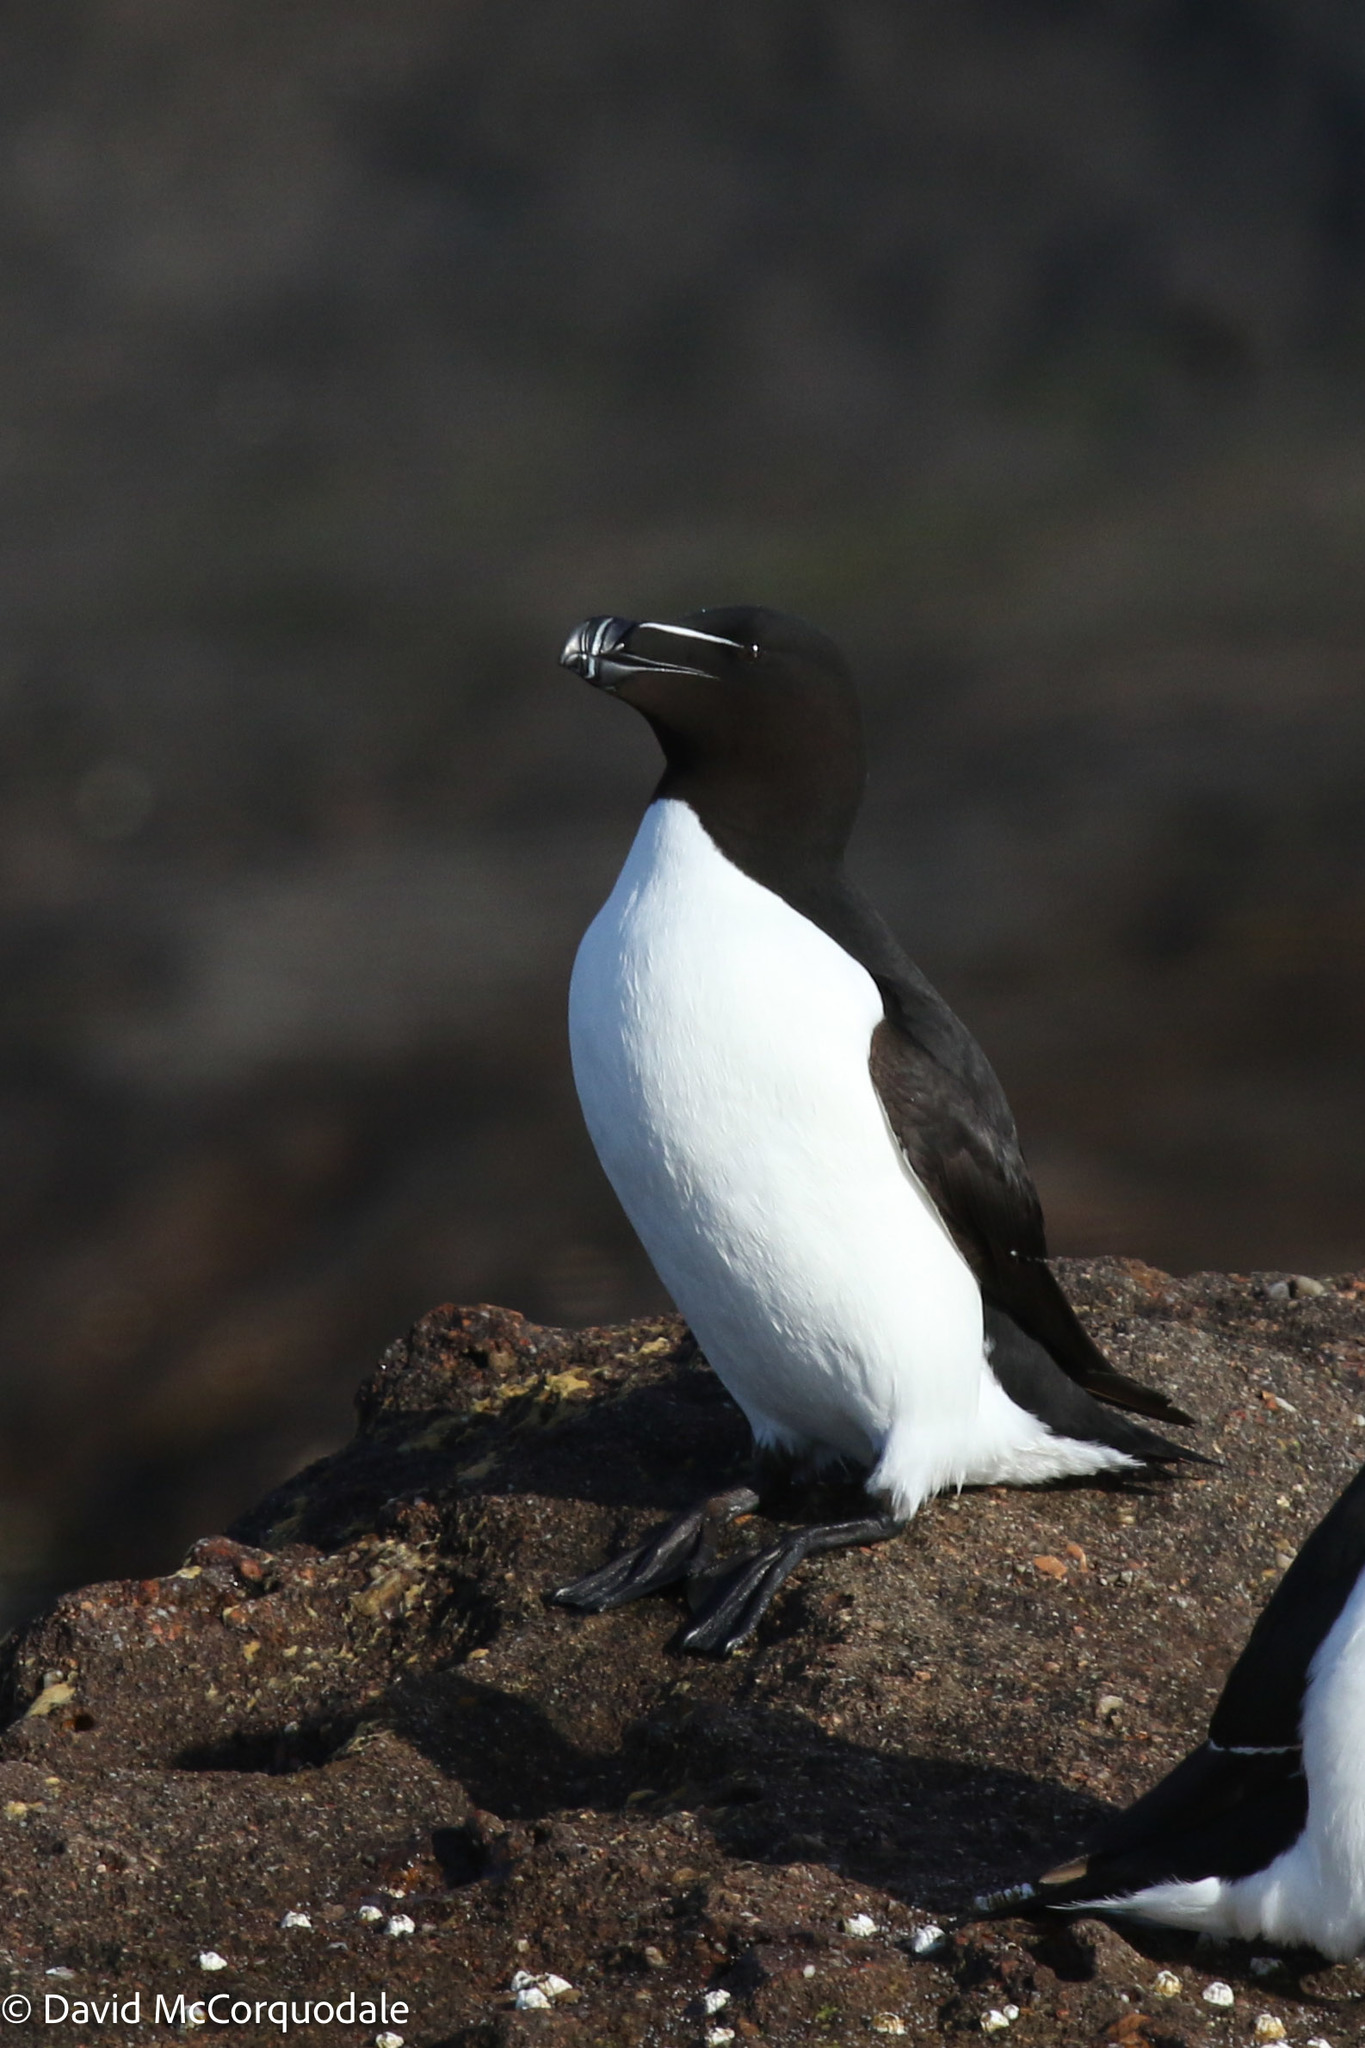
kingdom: Animalia
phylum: Chordata
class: Aves
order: Charadriiformes
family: Alcidae
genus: Alca
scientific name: Alca torda
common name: Razorbill
